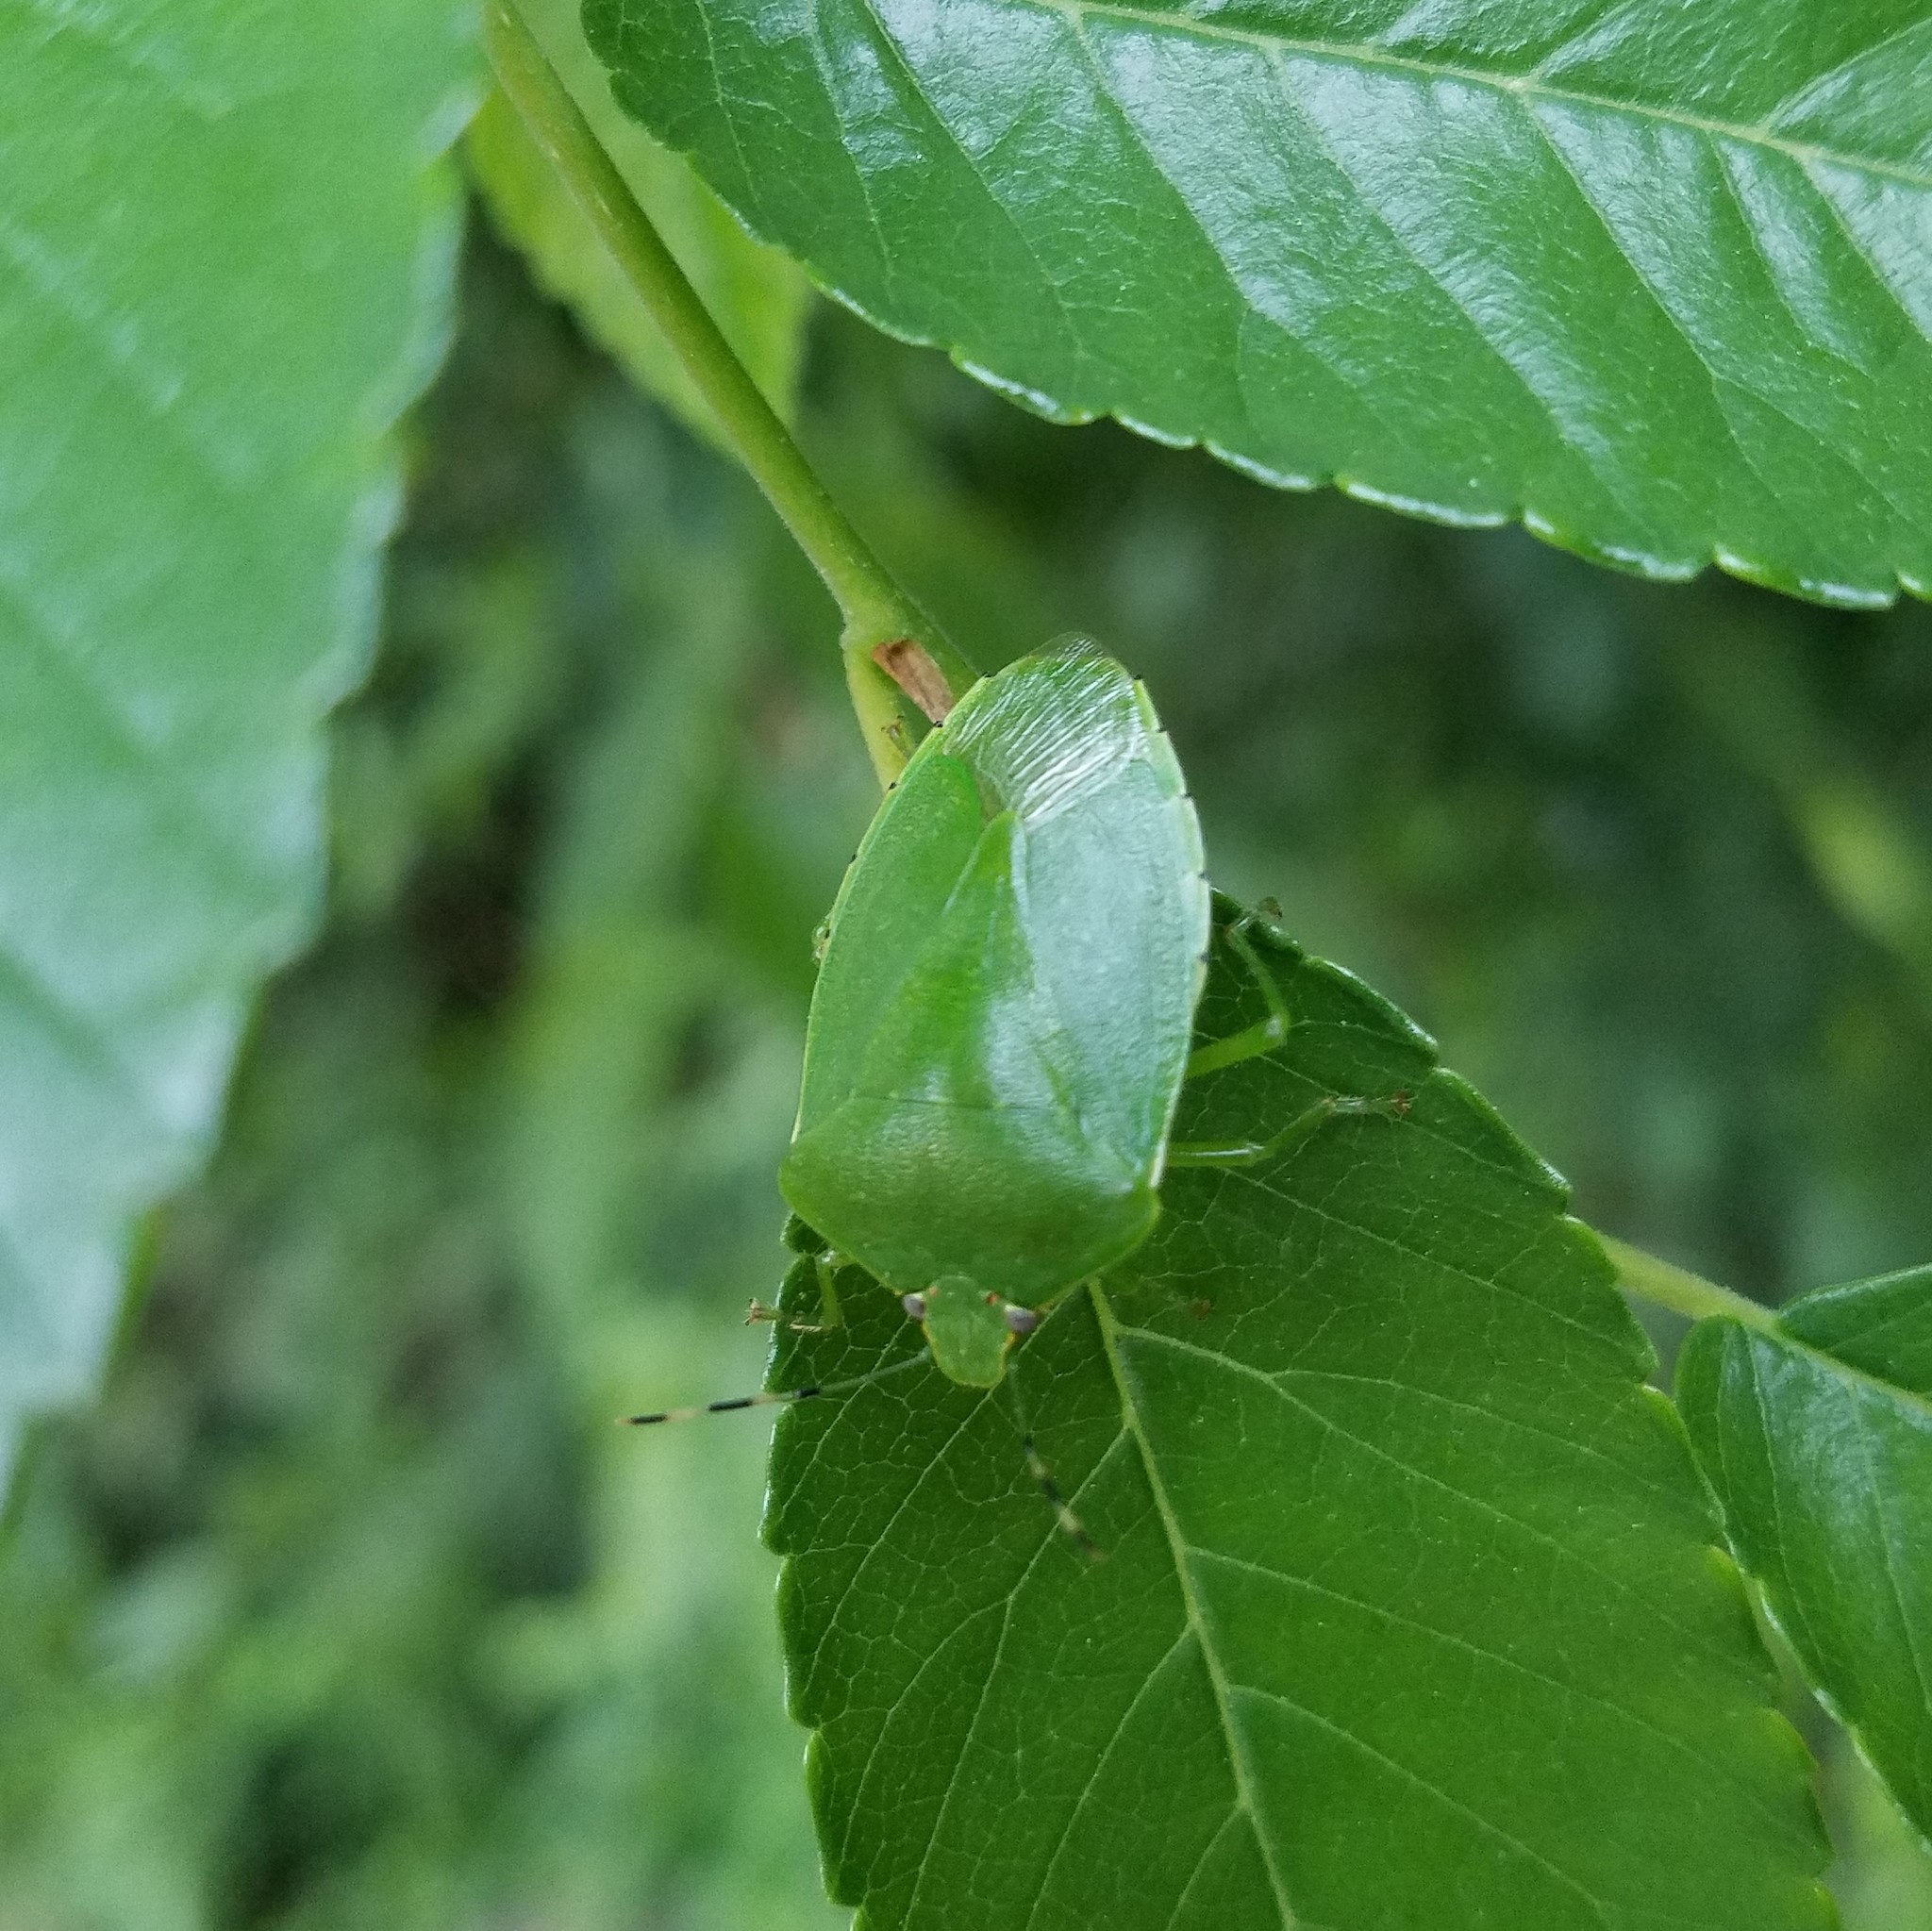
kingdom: Animalia
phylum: Arthropoda
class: Insecta
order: Hemiptera
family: Pentatomidae
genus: Chinavia
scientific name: Chinavia hilaris
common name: Green stink bug
